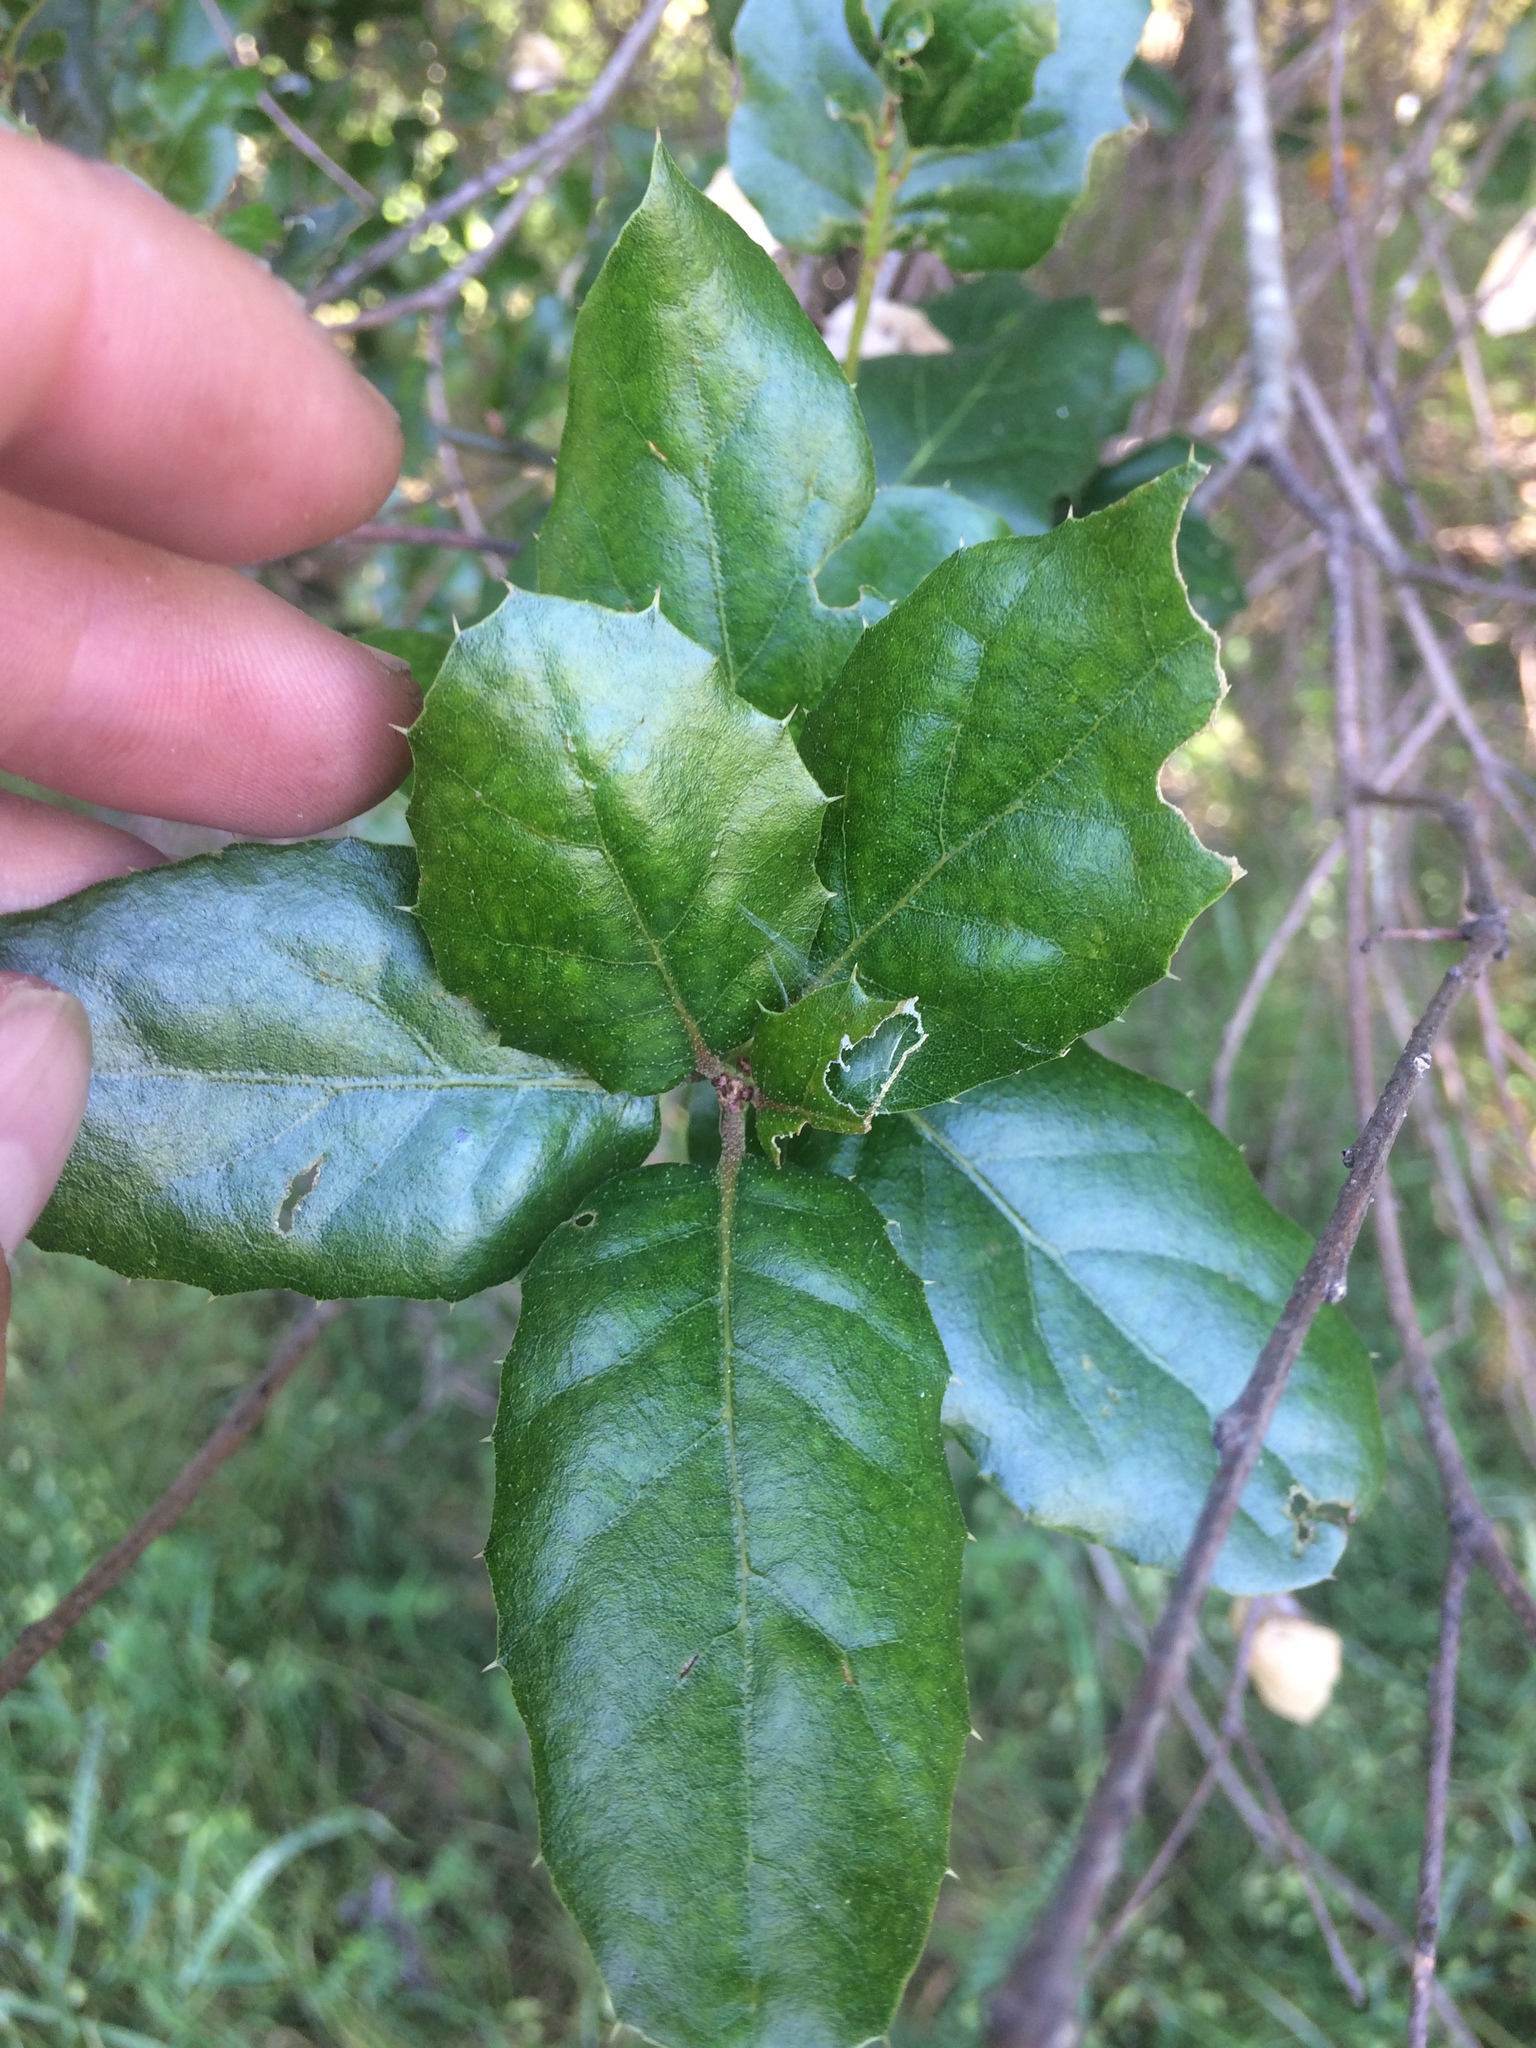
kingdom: Plantae
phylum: Tracheophyta
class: Magnoliopsida
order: Fagales
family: Fagaceae
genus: Quercus
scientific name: Quercus agrifolia
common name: California live oak
